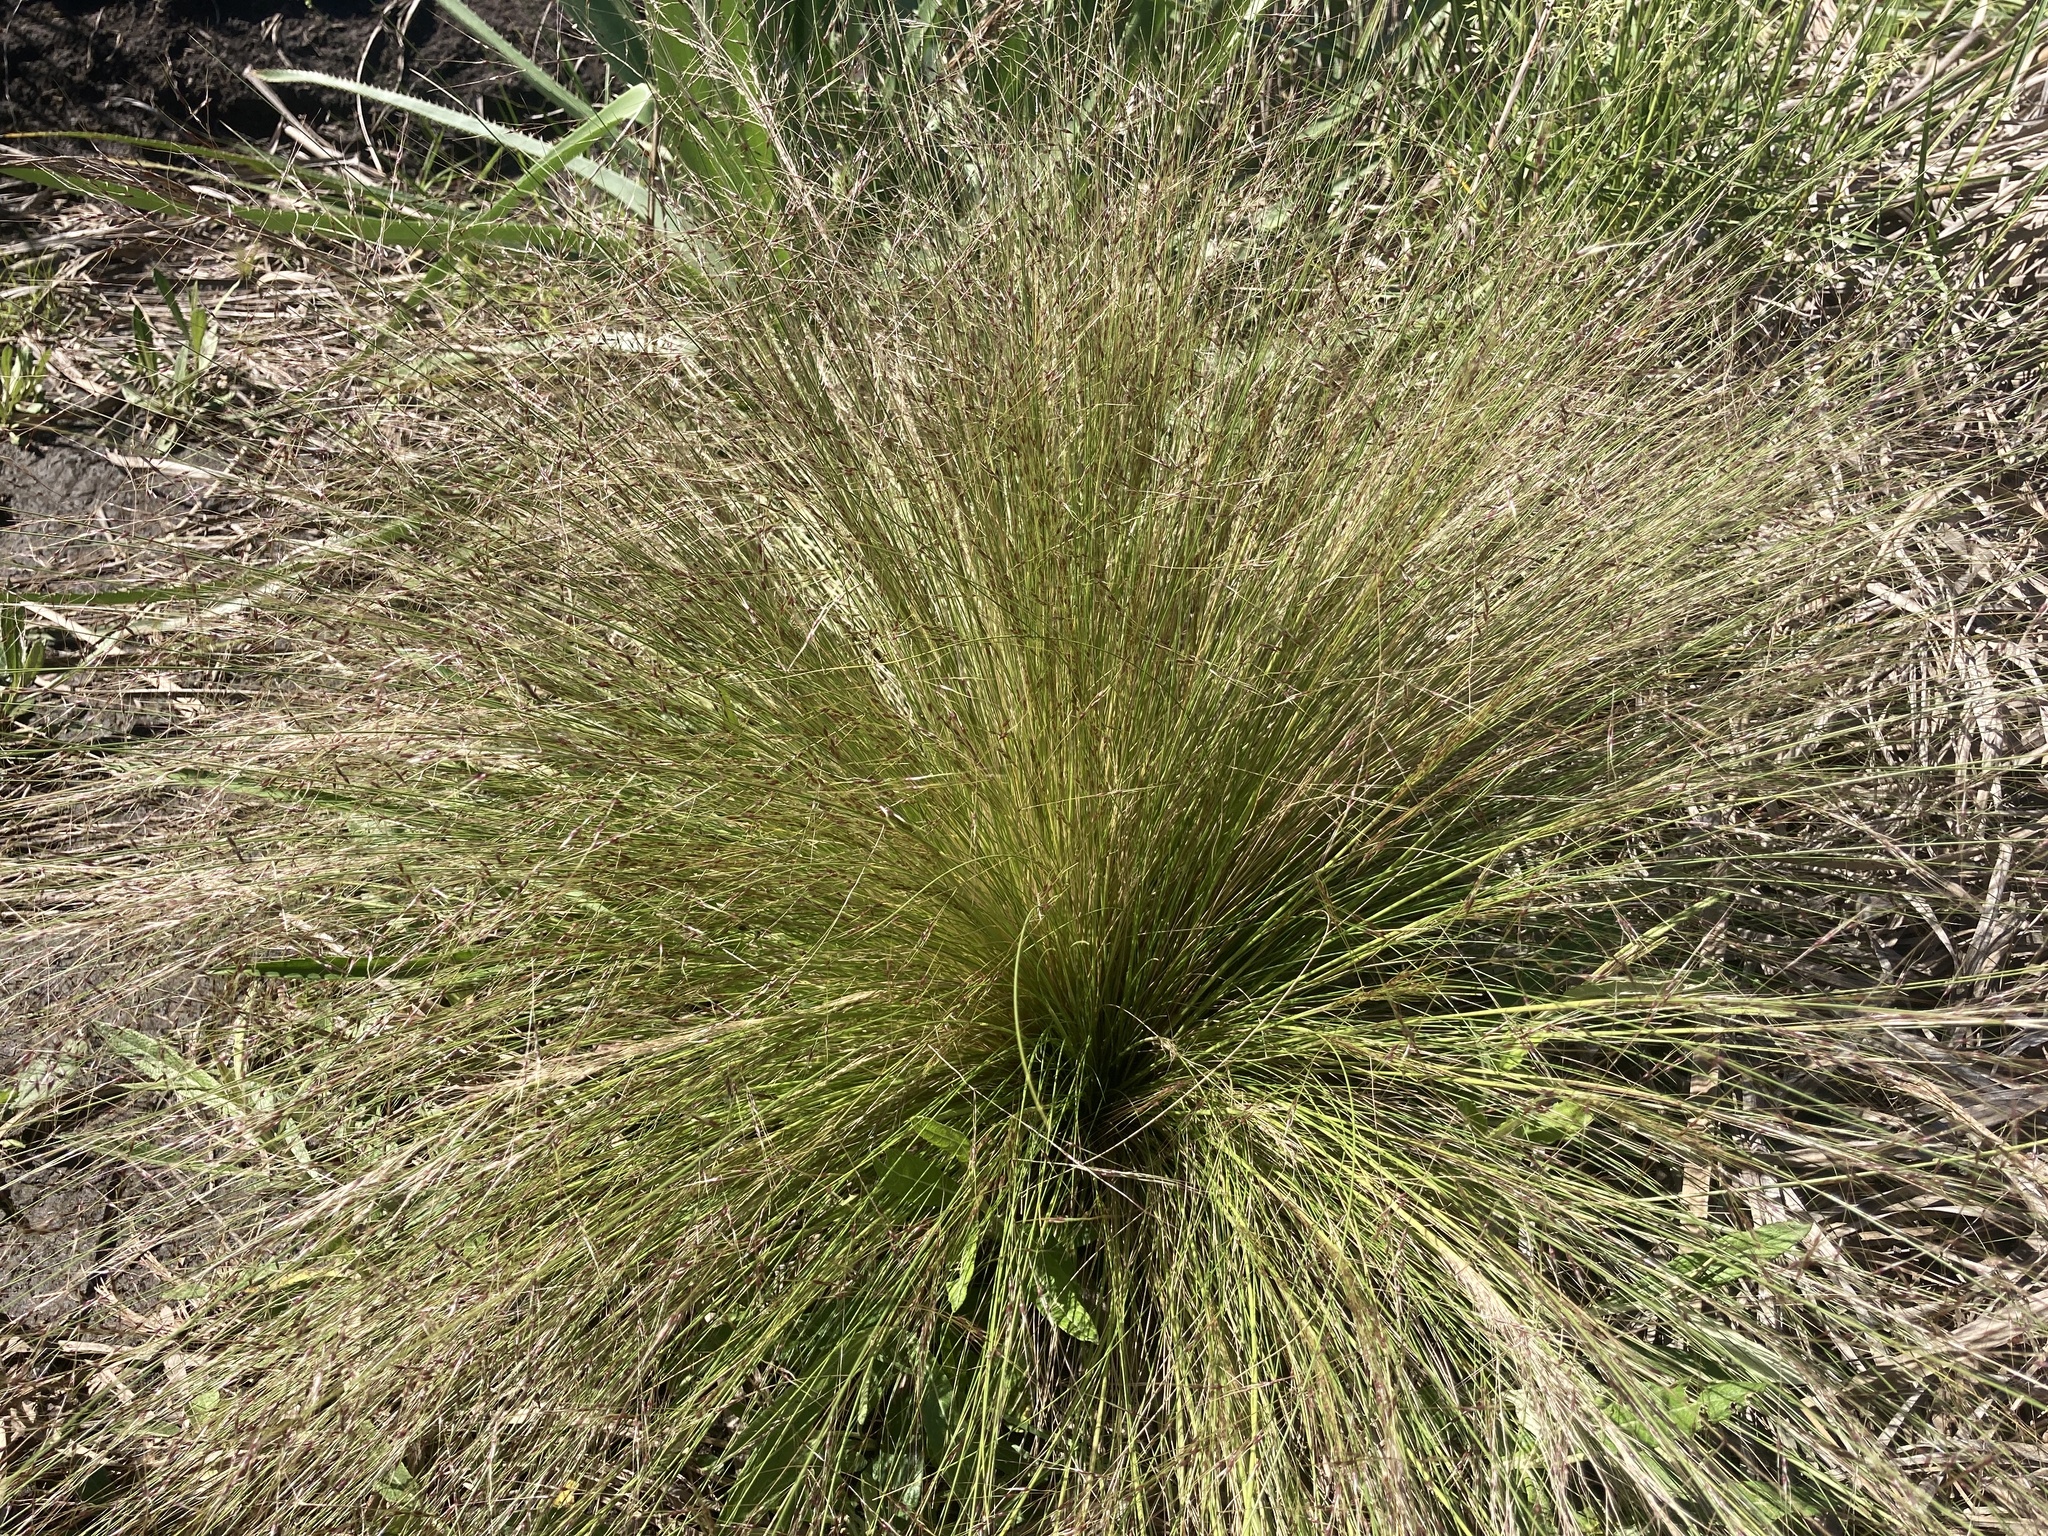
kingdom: Plantae
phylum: Tracheophyta
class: Liliopsida
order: Poales
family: Poaceae
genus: Nassella
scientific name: Nassella trichotoma
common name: Serrated tussock grass
